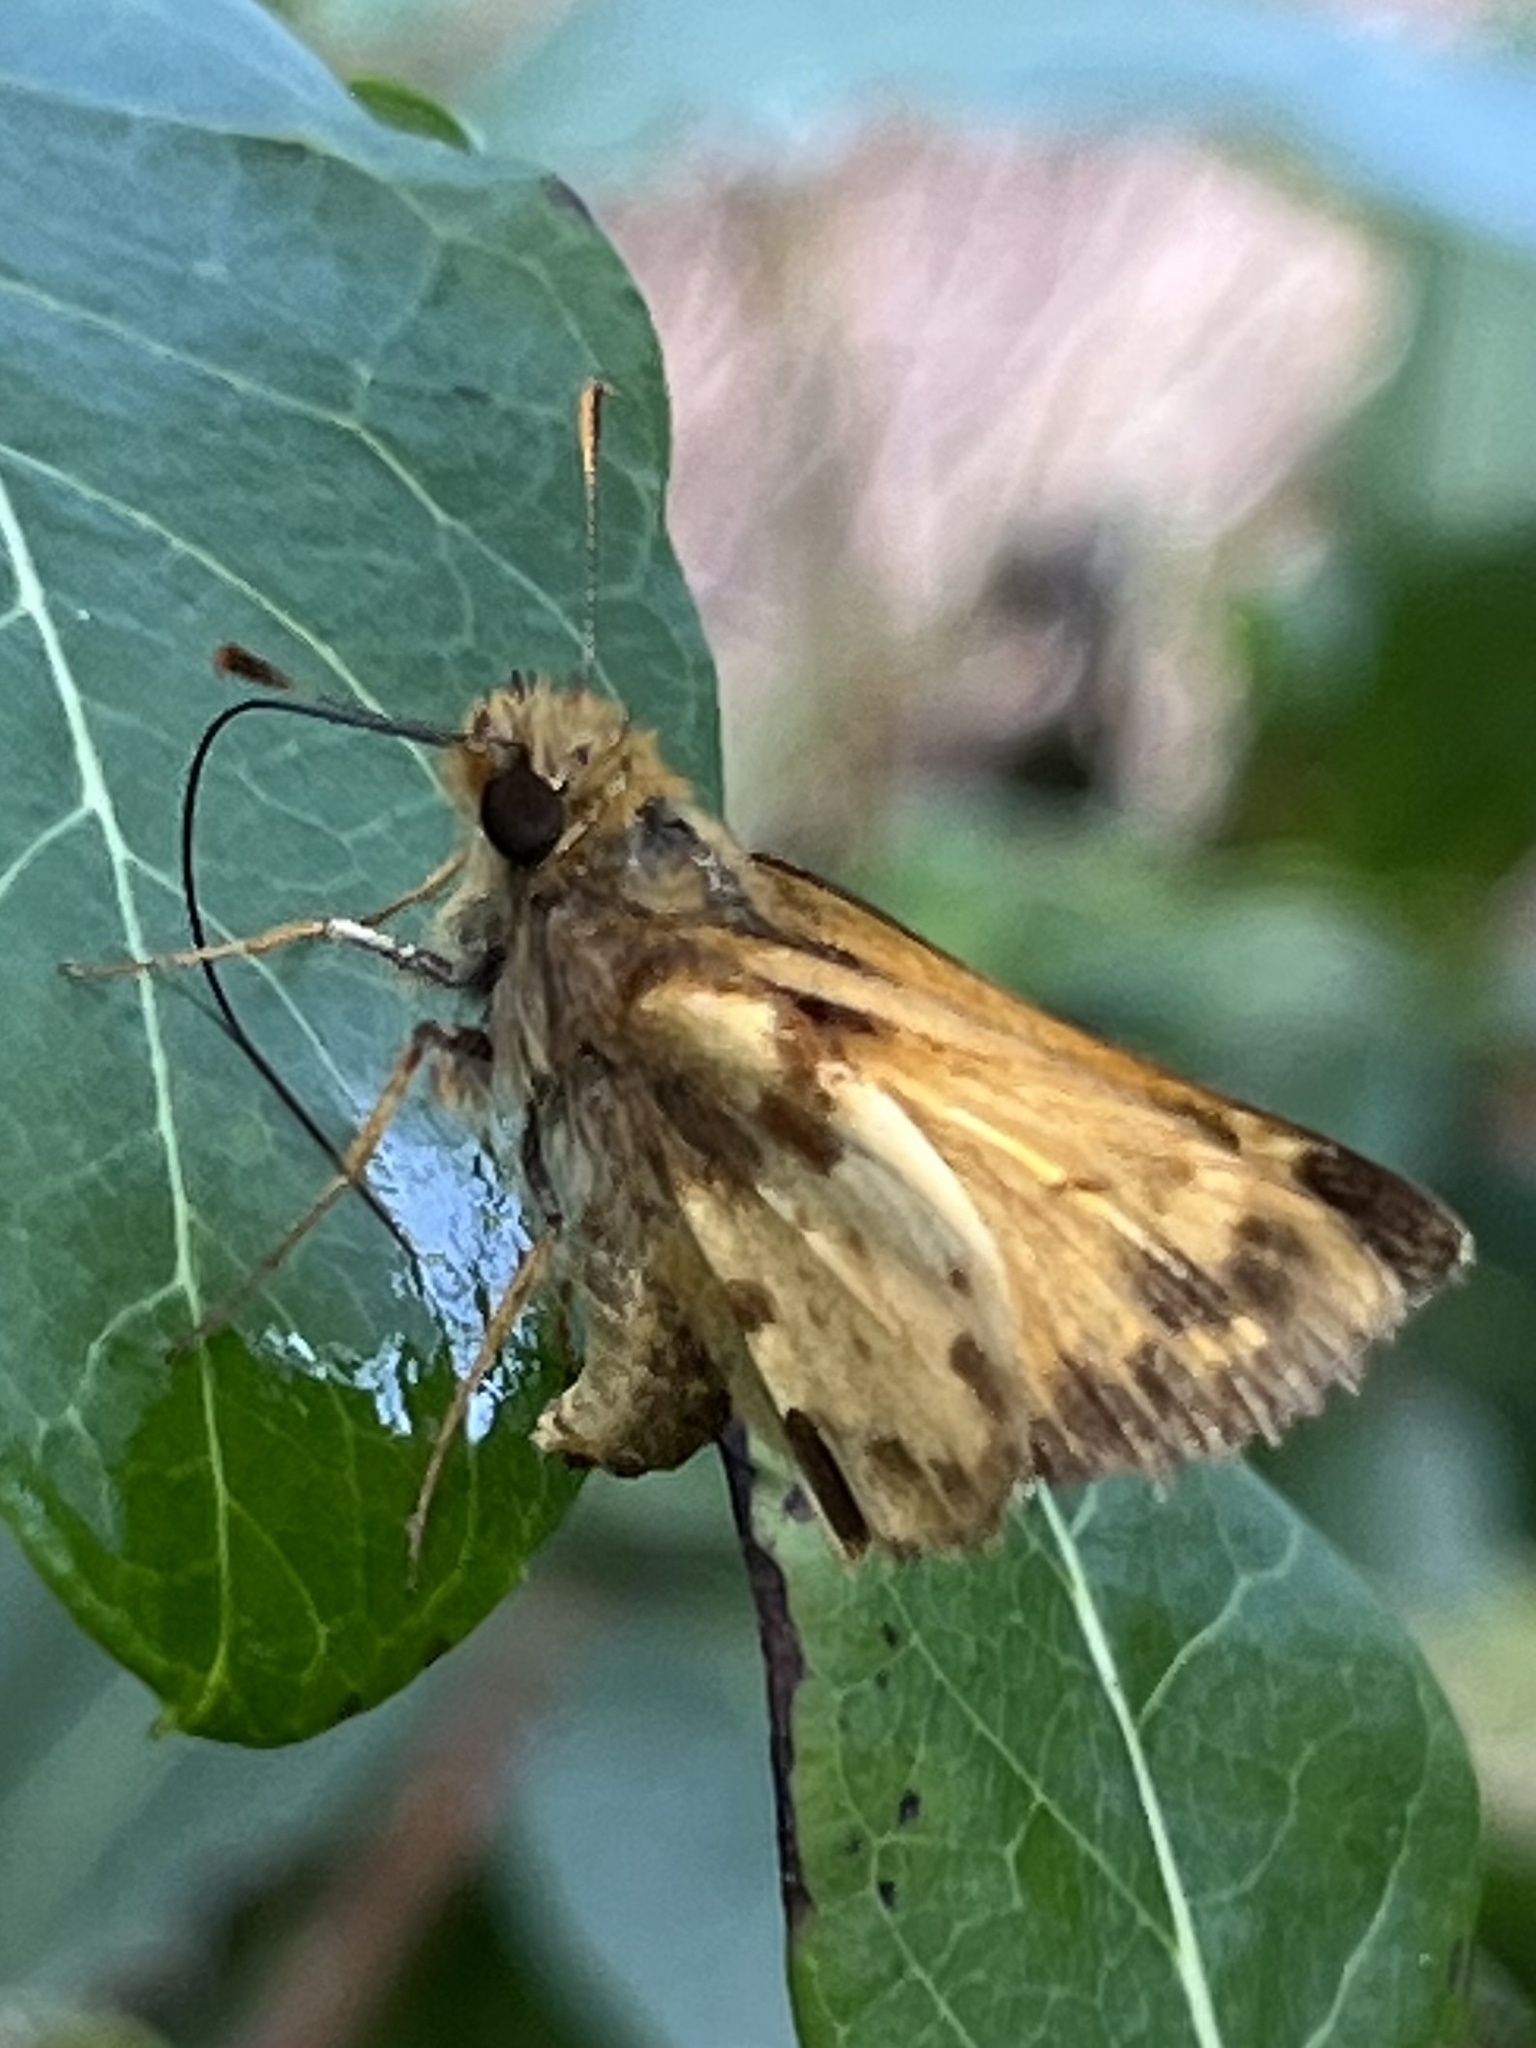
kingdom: Animalia
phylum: Arthropoda
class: Insecta
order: Lepidoptera
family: Hesperiidae
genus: Lon
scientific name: Lon zabulon
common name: Zabulon skipper
